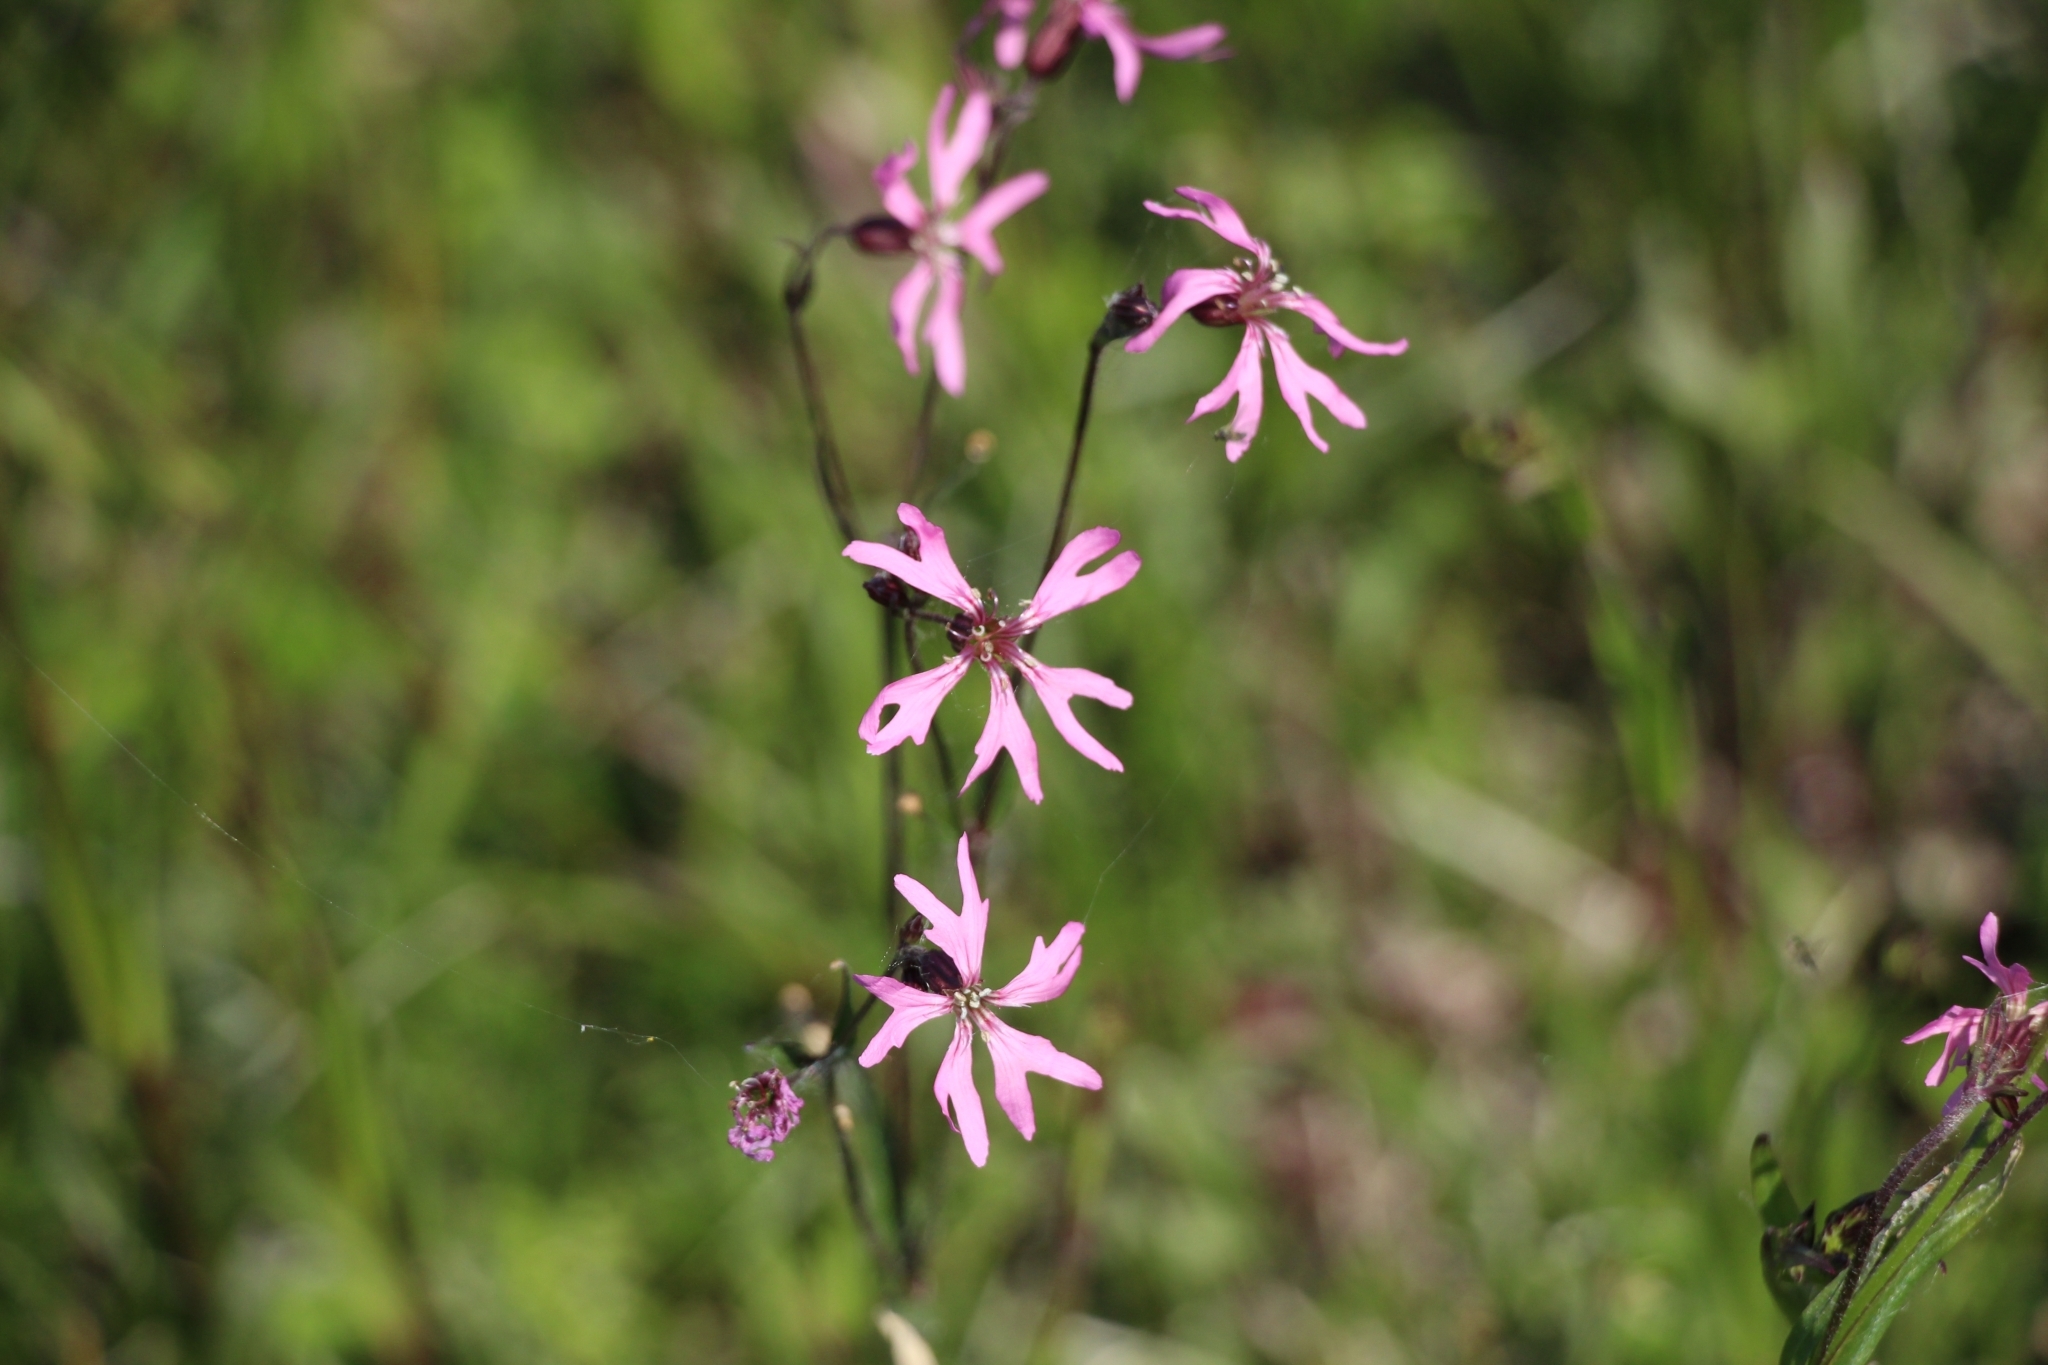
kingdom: Plantae
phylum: Tracheophyta
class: Magnoliopsida
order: Caryophyllales
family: Caryophyllaceae
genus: Silene
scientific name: Silene flos-cuculi
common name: Ragged-robin
